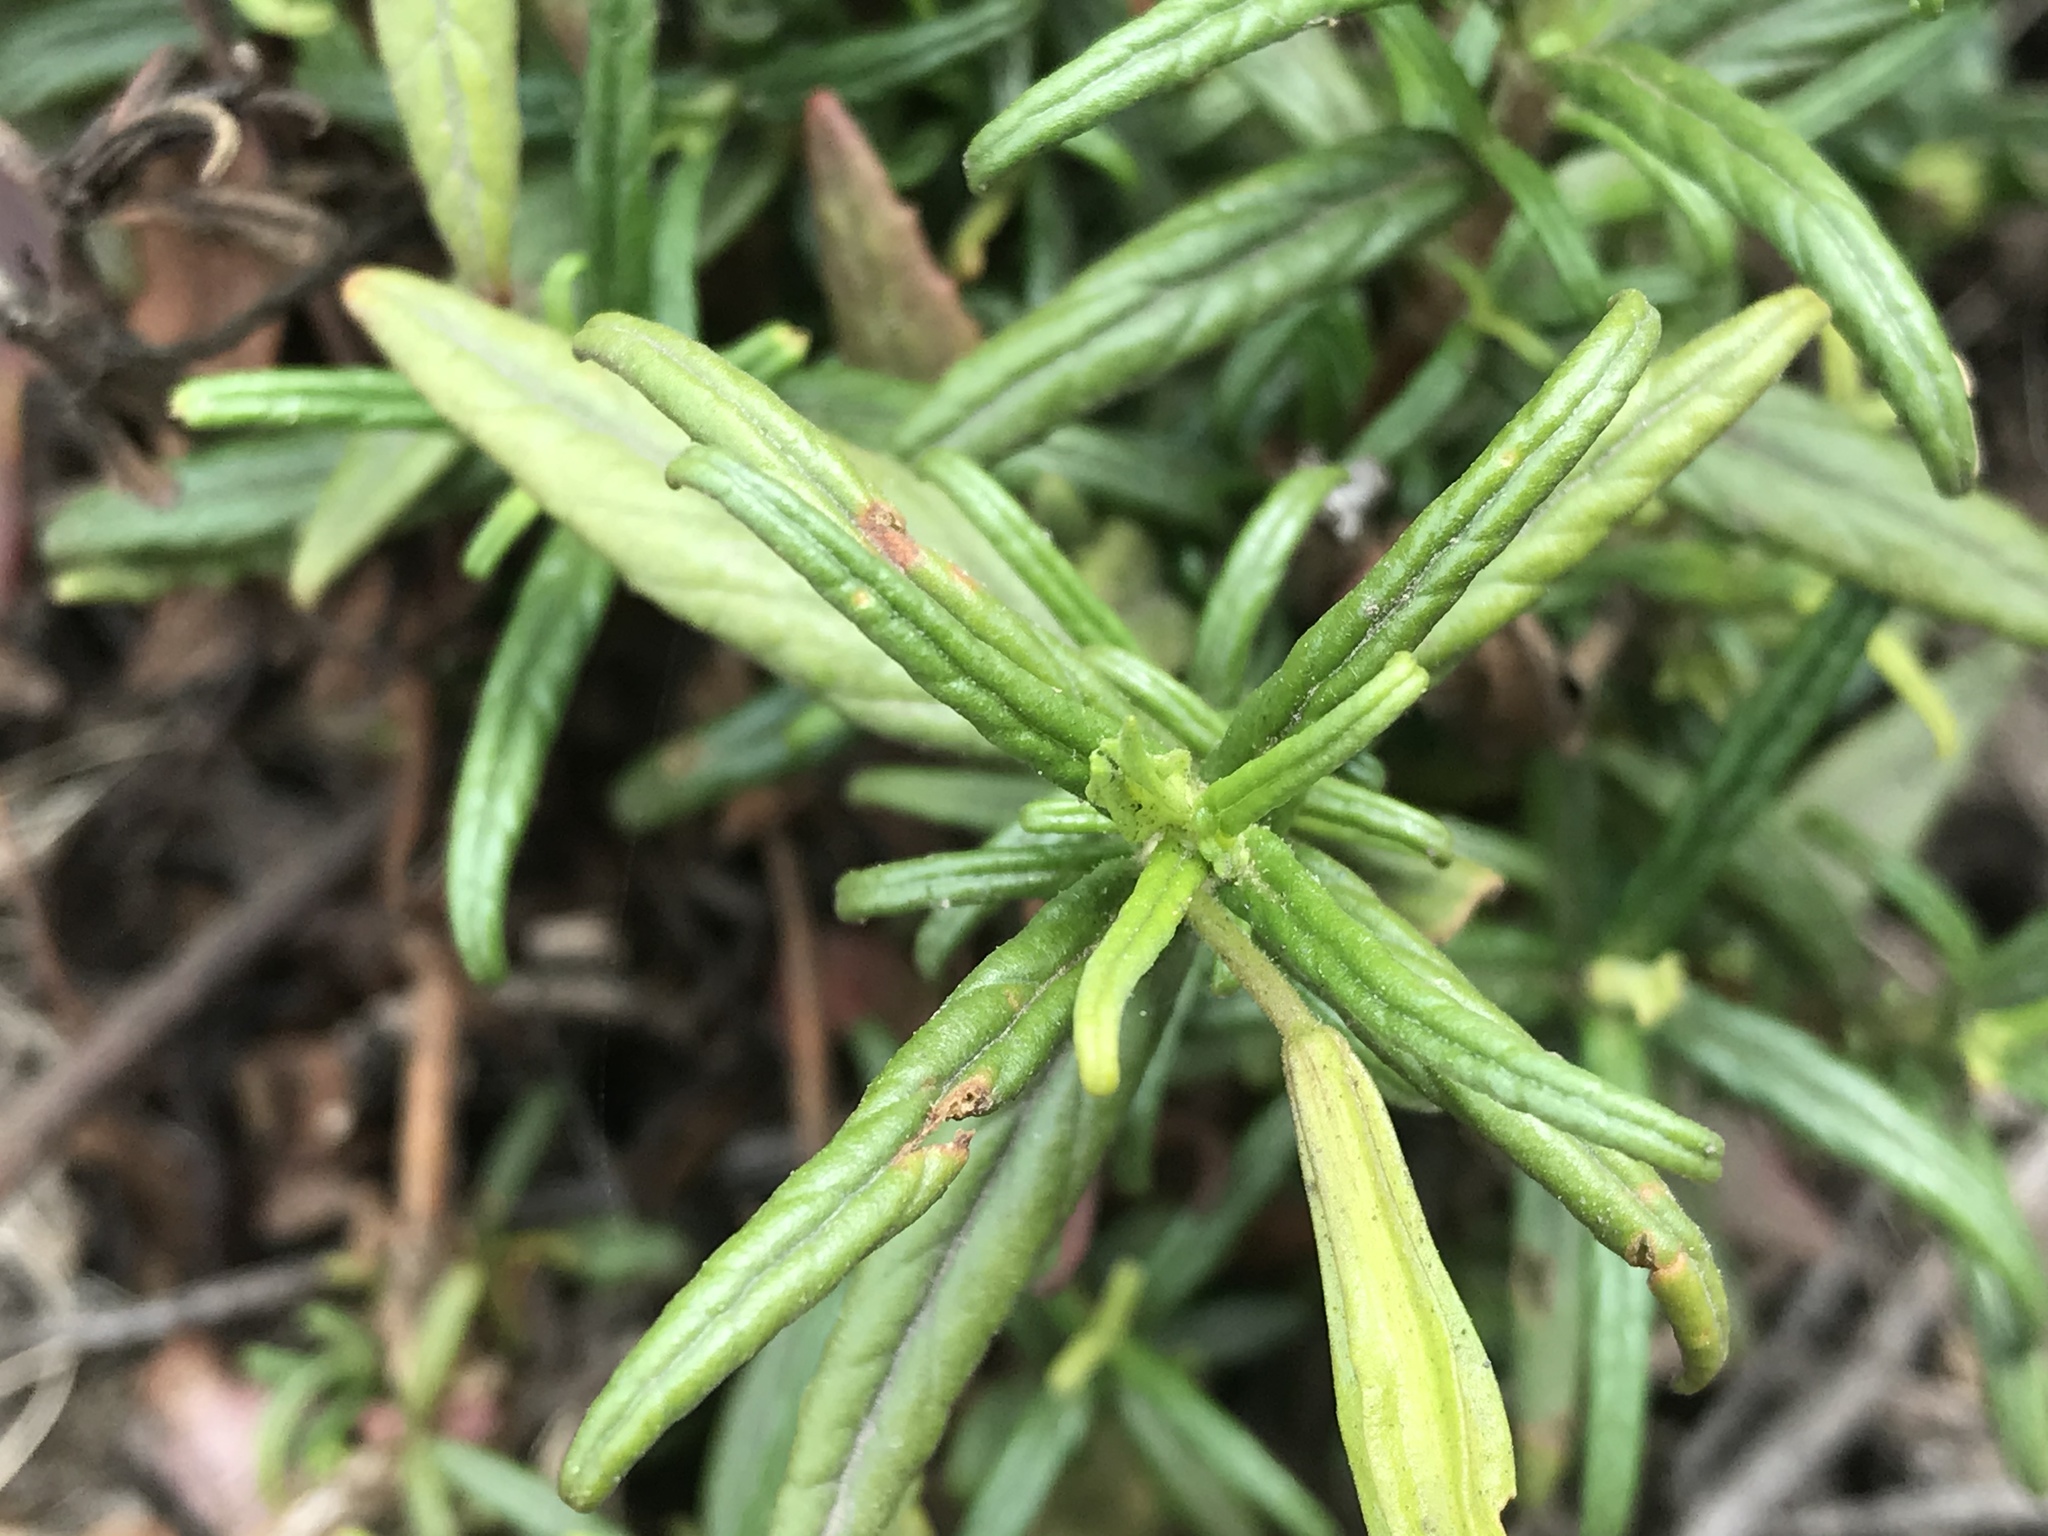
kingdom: Plantae
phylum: Tracheophyta
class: Magnoliopsida
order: Lamiales
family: Phrymaceae
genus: Diplacus
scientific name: Diplacus aurantiacus
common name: Bush monkey-flower
